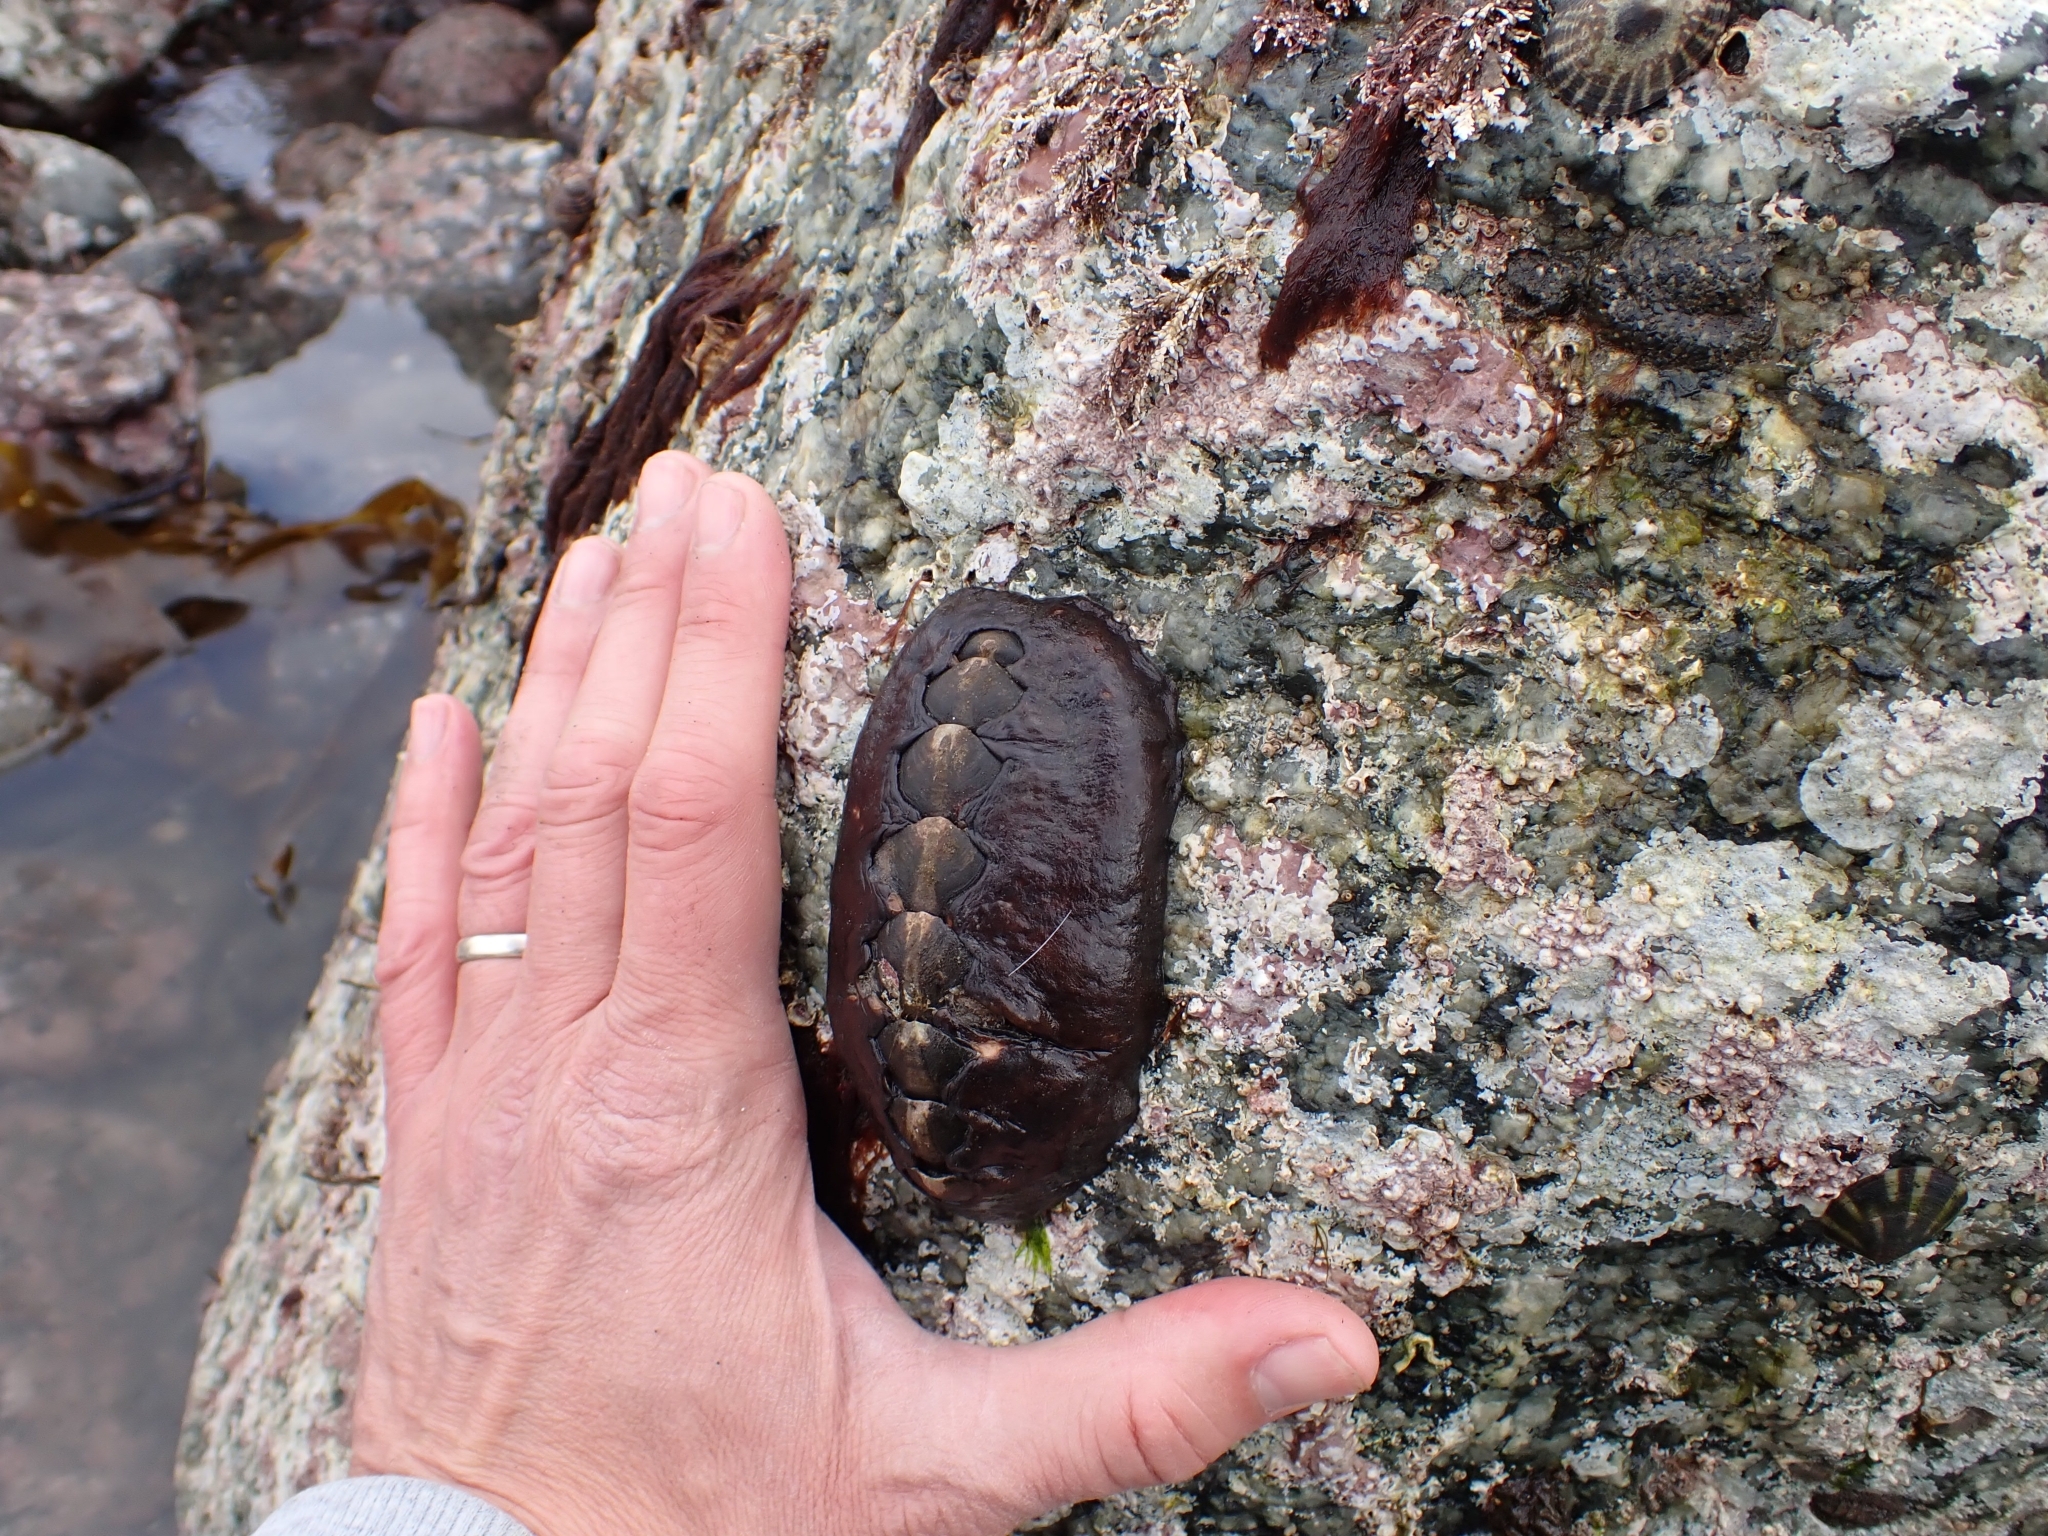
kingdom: Animalia
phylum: Mollusca
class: Polyplacophora
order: Chitonida
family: Mopaliidae
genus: Katharina
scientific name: Katharina tunicata
